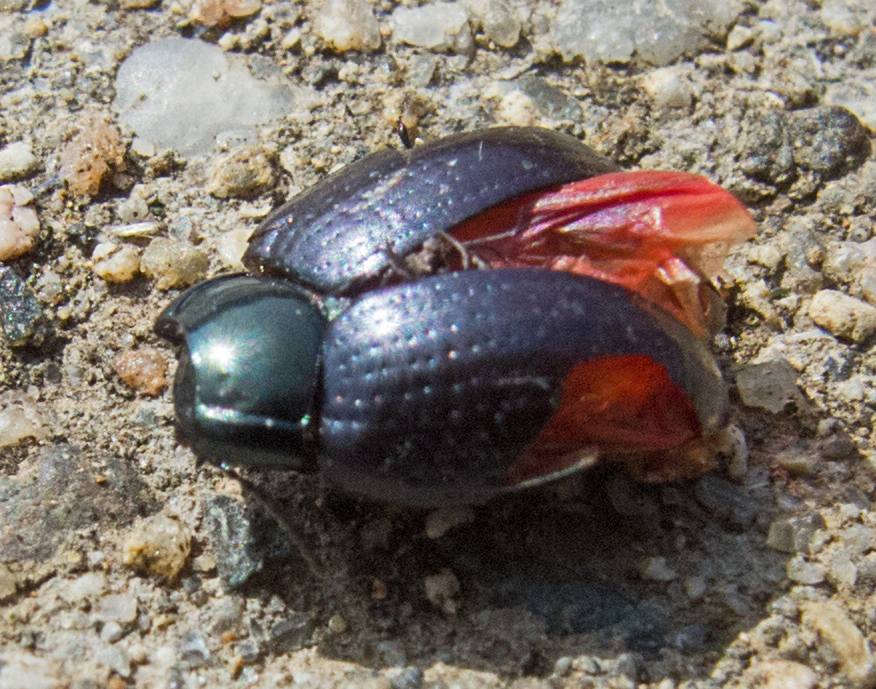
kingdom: Animalia
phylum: Arthropoda
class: Insecta
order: Coleoptera
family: Chrysomelidae
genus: Chrysolina
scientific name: Chrysolina chalcites
